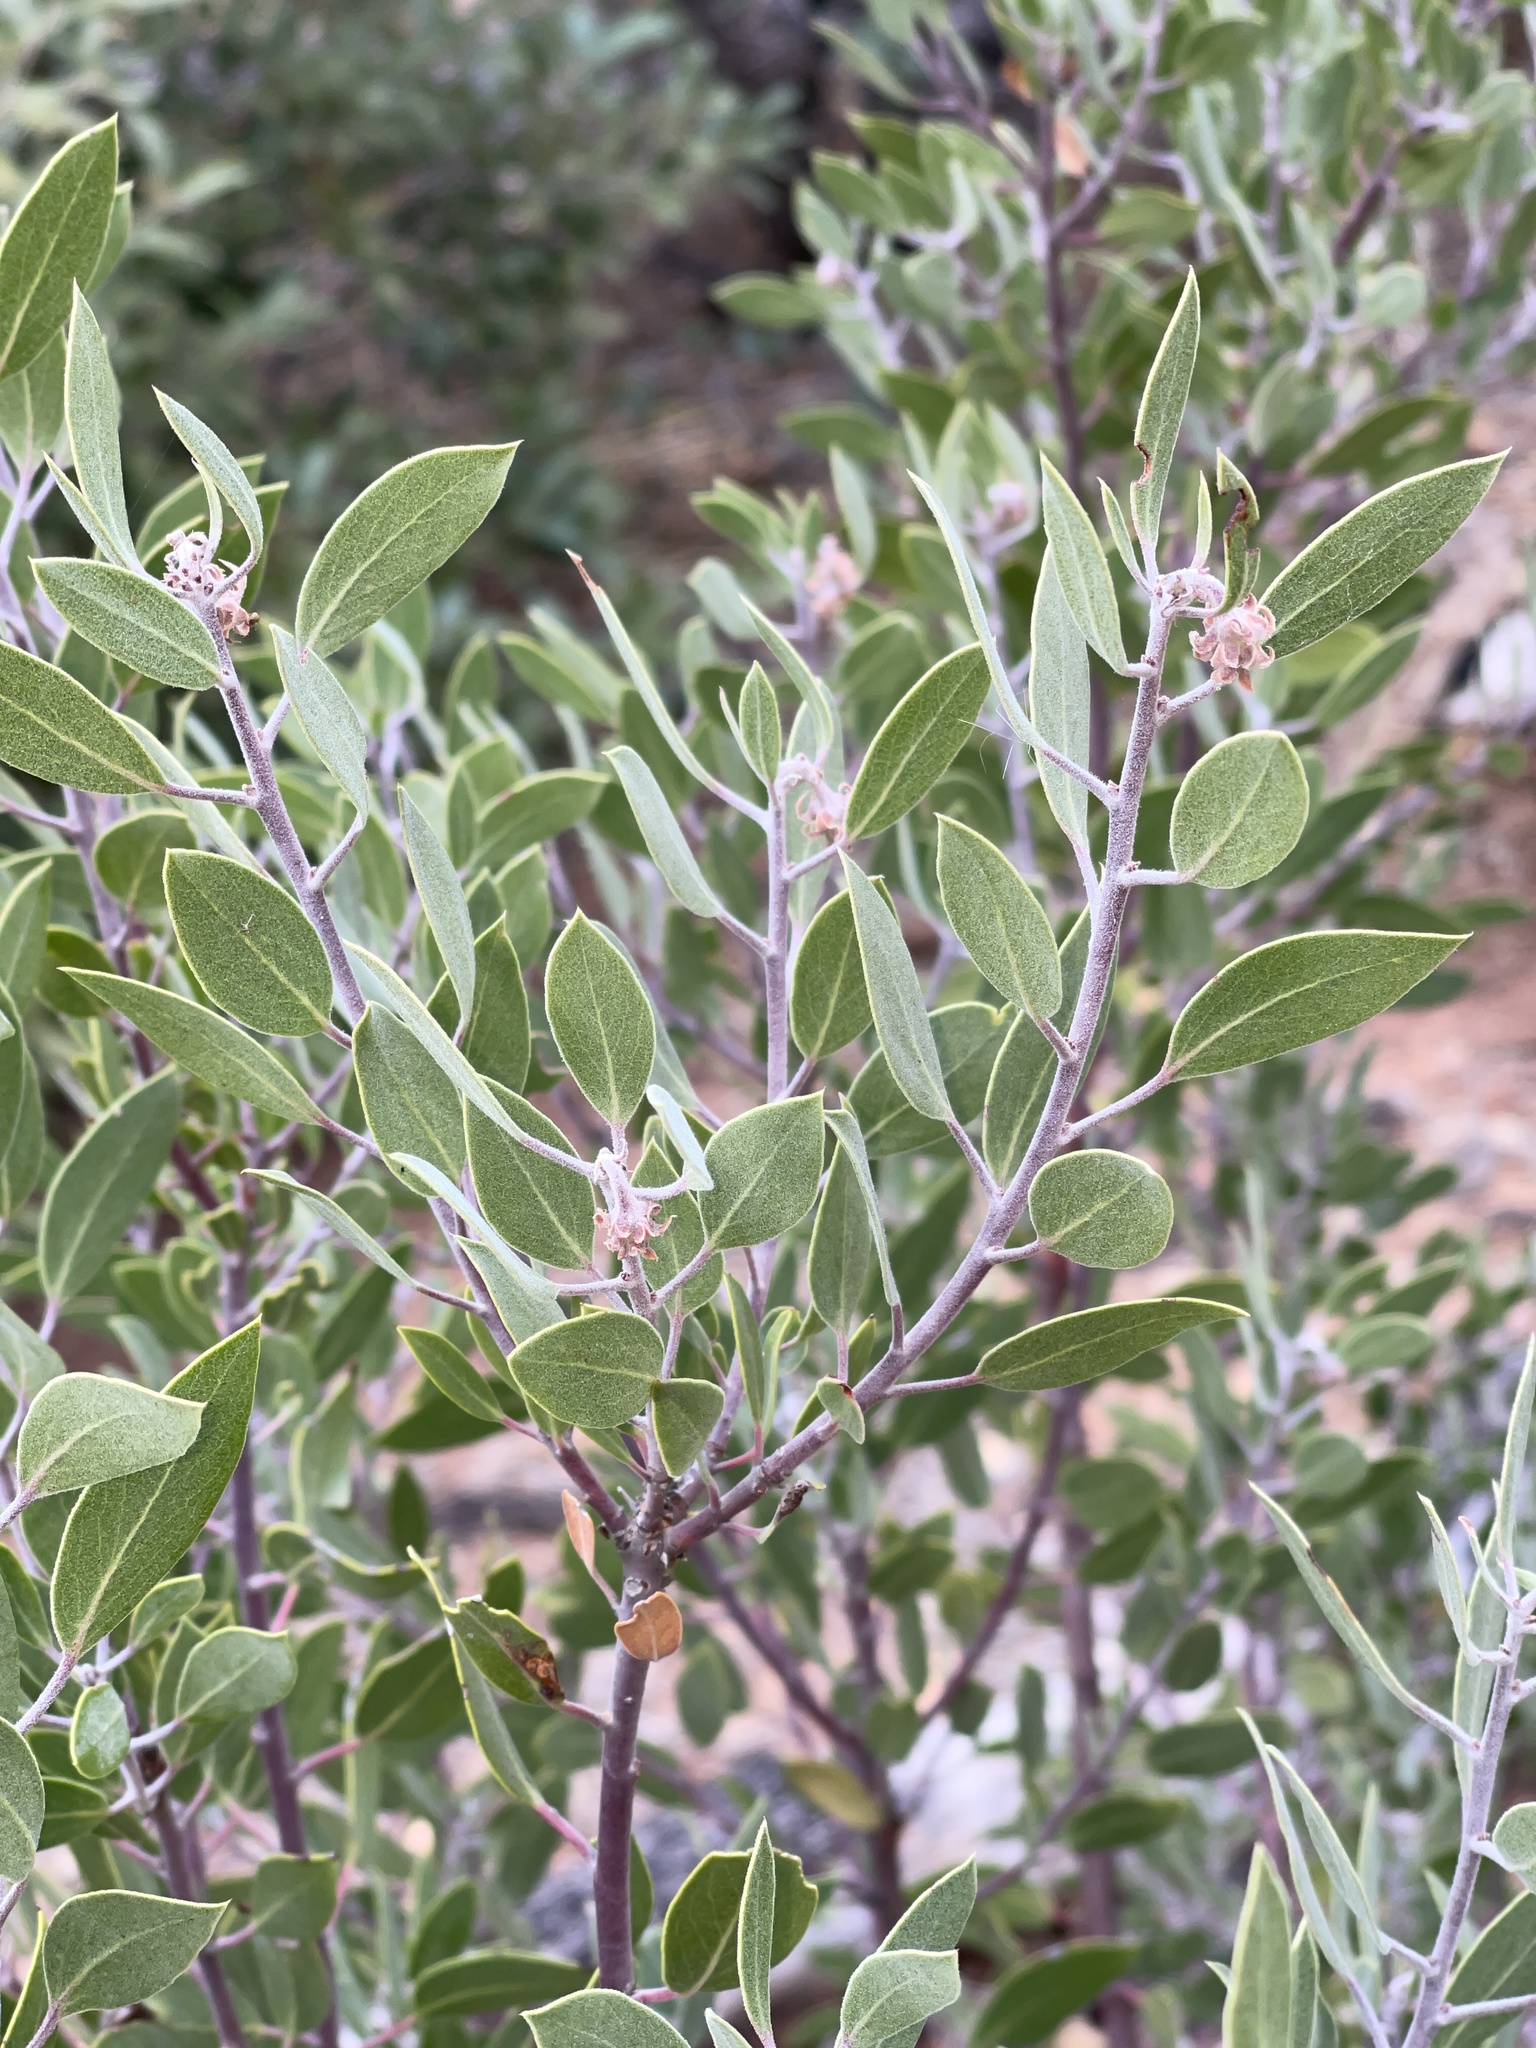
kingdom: Plantae
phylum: Tracheophyta
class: Magnoliopsida
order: Ericales
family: Ericaceae
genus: Arctostaphylos
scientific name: Arctostaphylos pungens
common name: Mexican manzanita
